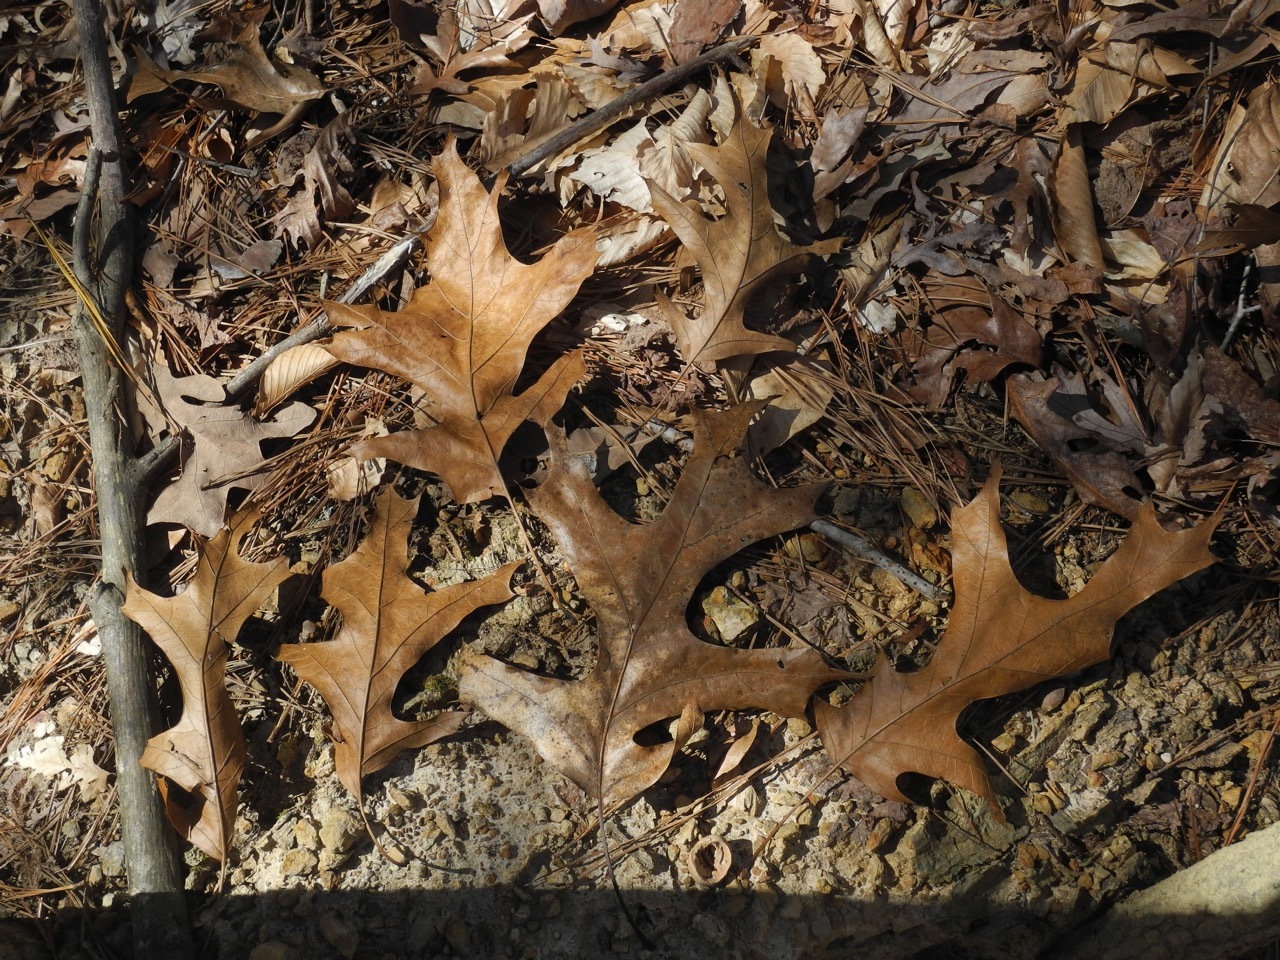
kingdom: Plantae
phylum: Tracheophyta
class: Magnoliopsida
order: Fagales
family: Fagaceae
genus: Quercus
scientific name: Quercus coccinea
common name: Scarlet oak
